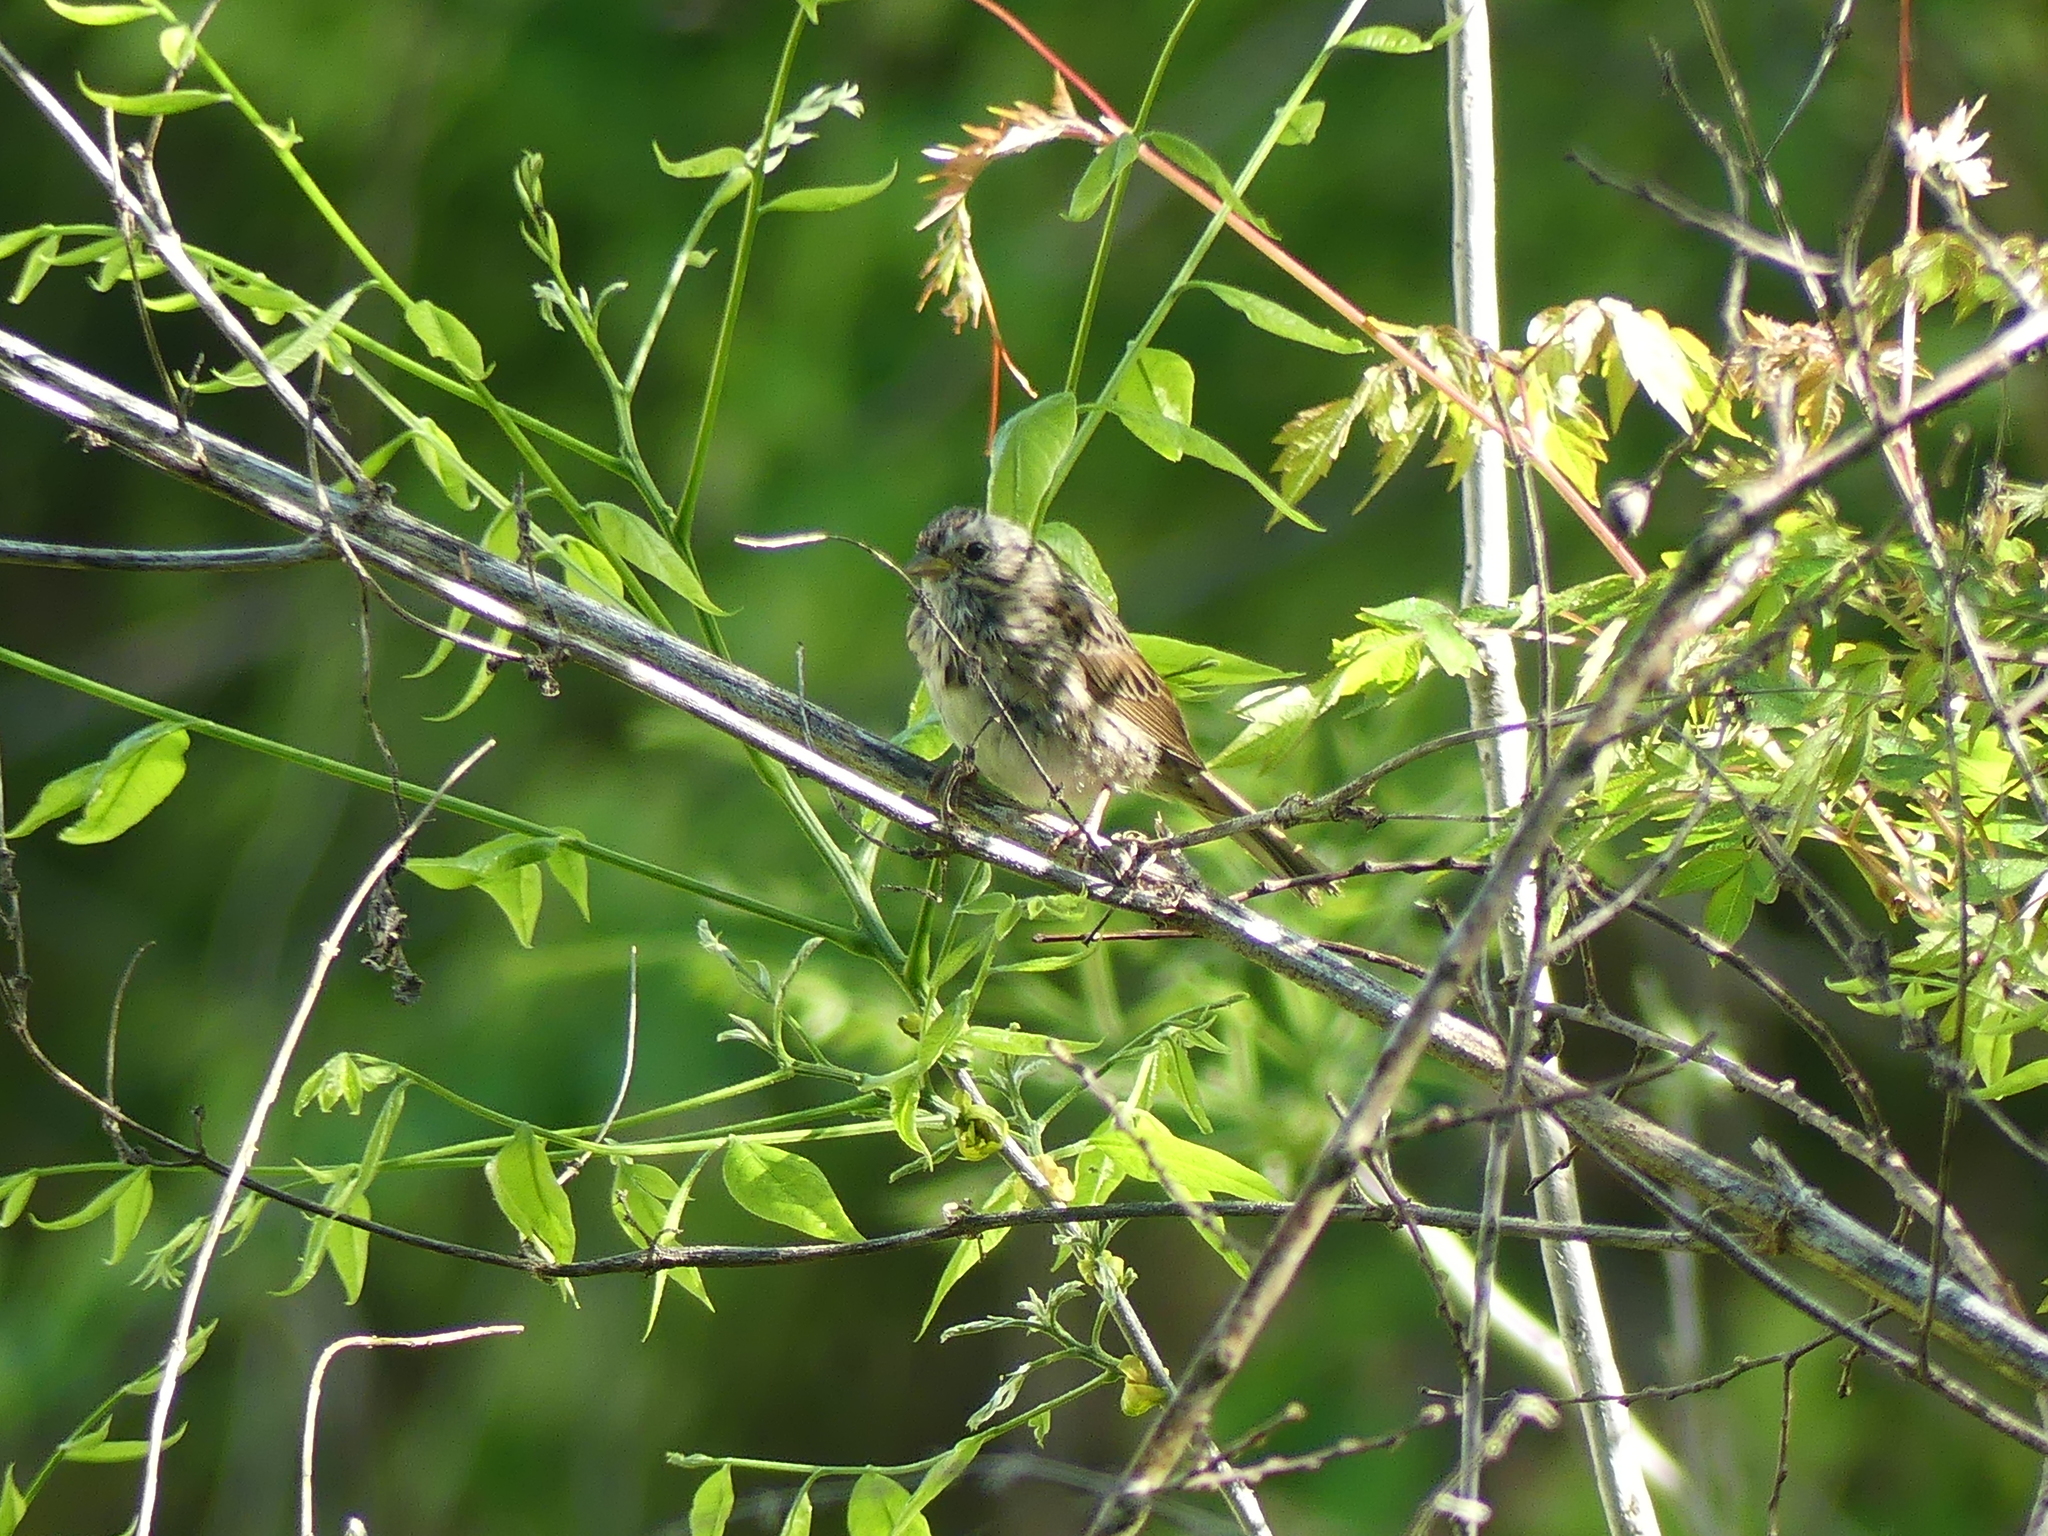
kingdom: Animalia
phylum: Chordata
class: Aves
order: Passeriformes
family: Passerellidae
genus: Melospiza
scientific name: Melospiza lincolnii
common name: Lincoln's sparrow
